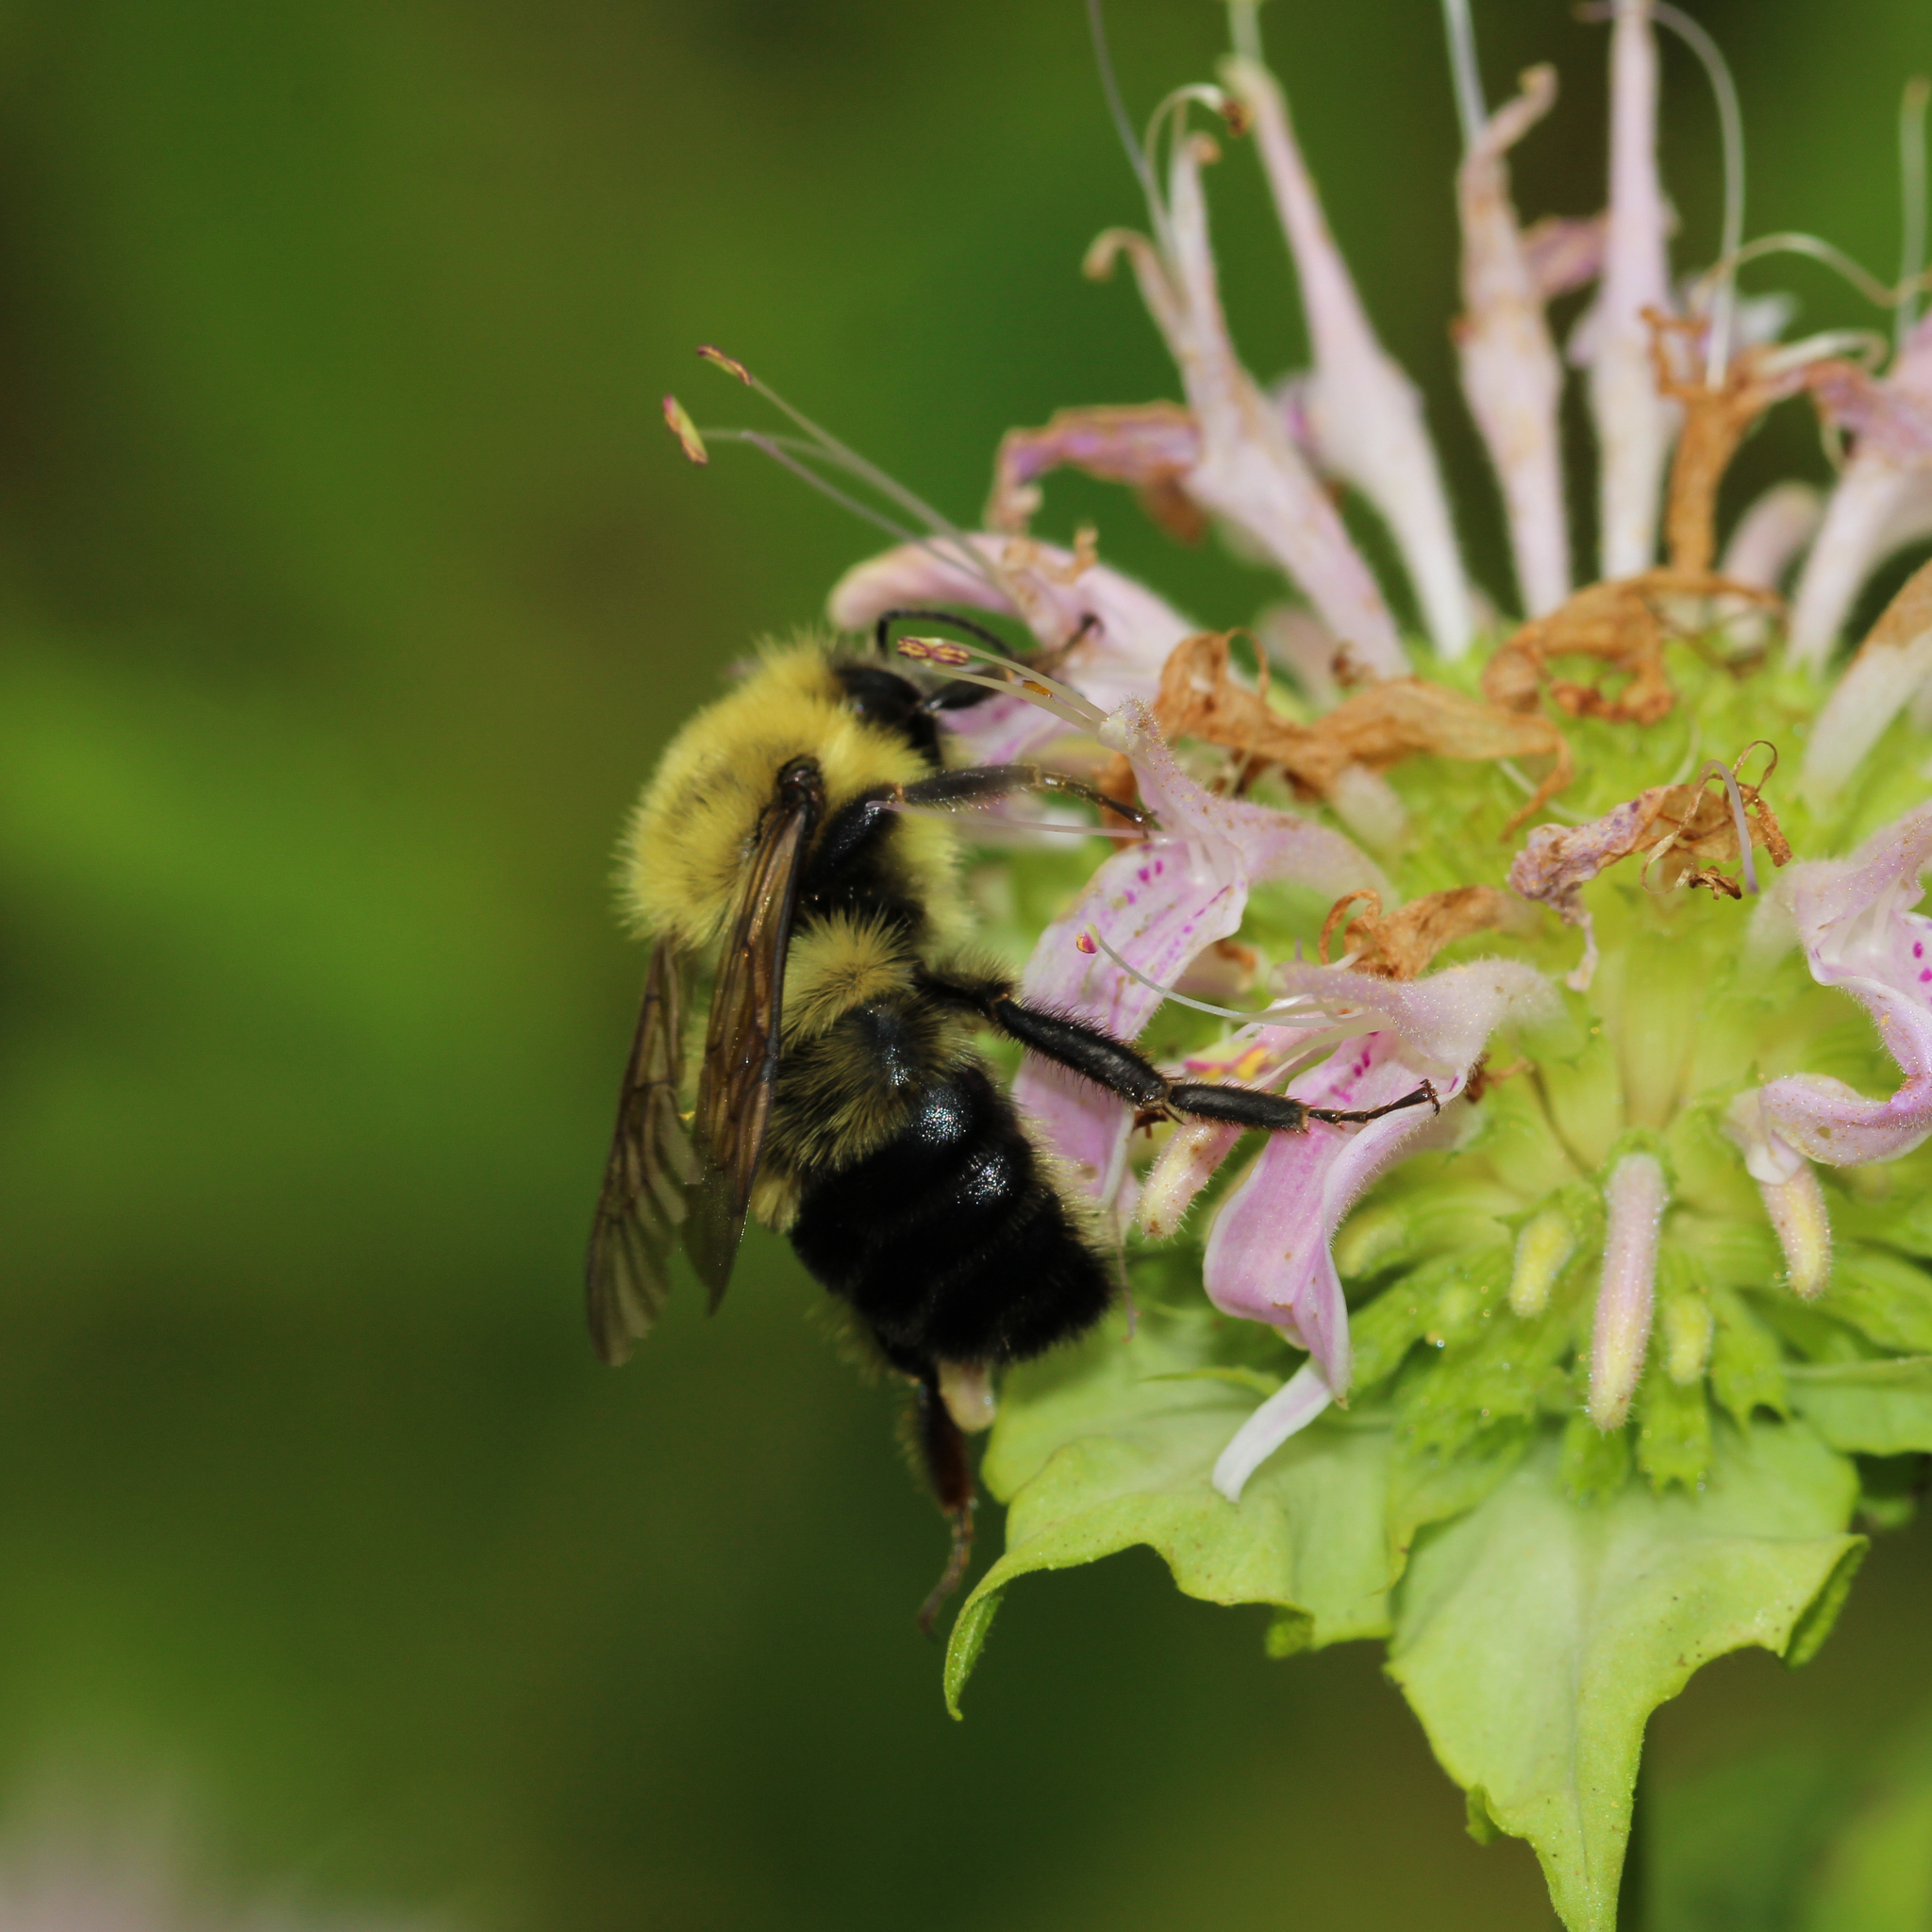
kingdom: Animalia
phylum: Arthropoda
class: Insecta
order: Hymenoptera
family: Apidae
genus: Bombus
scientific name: Bombus bimaculatus
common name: Two-spotted bumble bee
